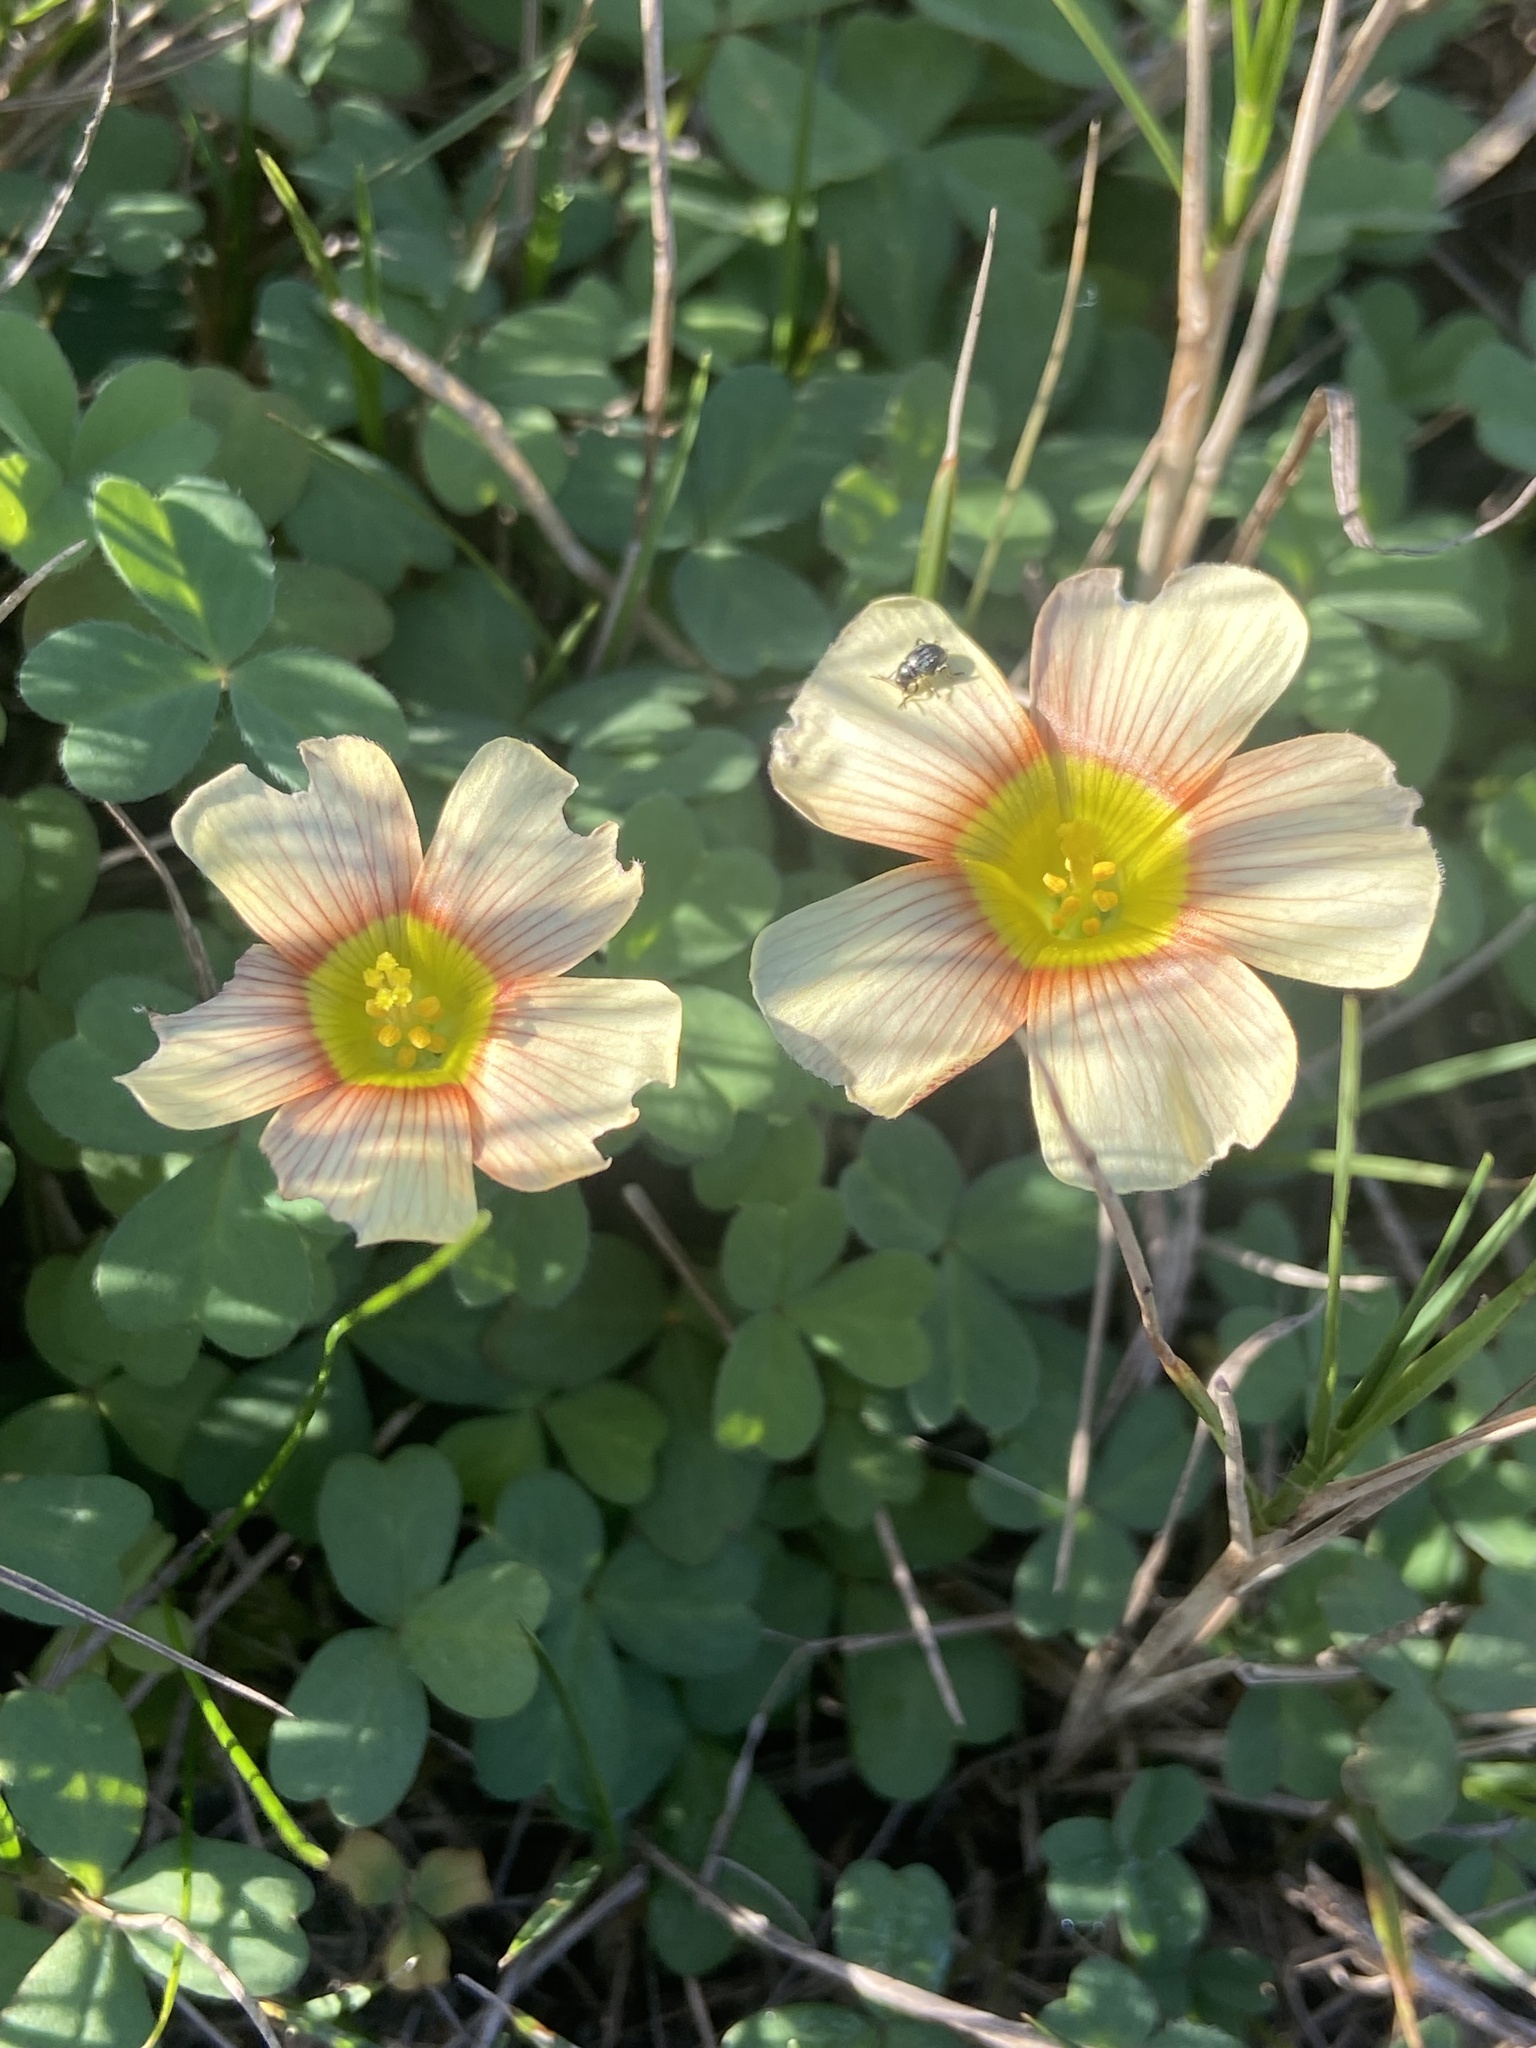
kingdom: Plantae
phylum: Tracheophyta
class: Magnoliopsida
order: Oxalidales
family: Oxalidaceae
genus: Oxalis
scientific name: Oxalis obtusa
